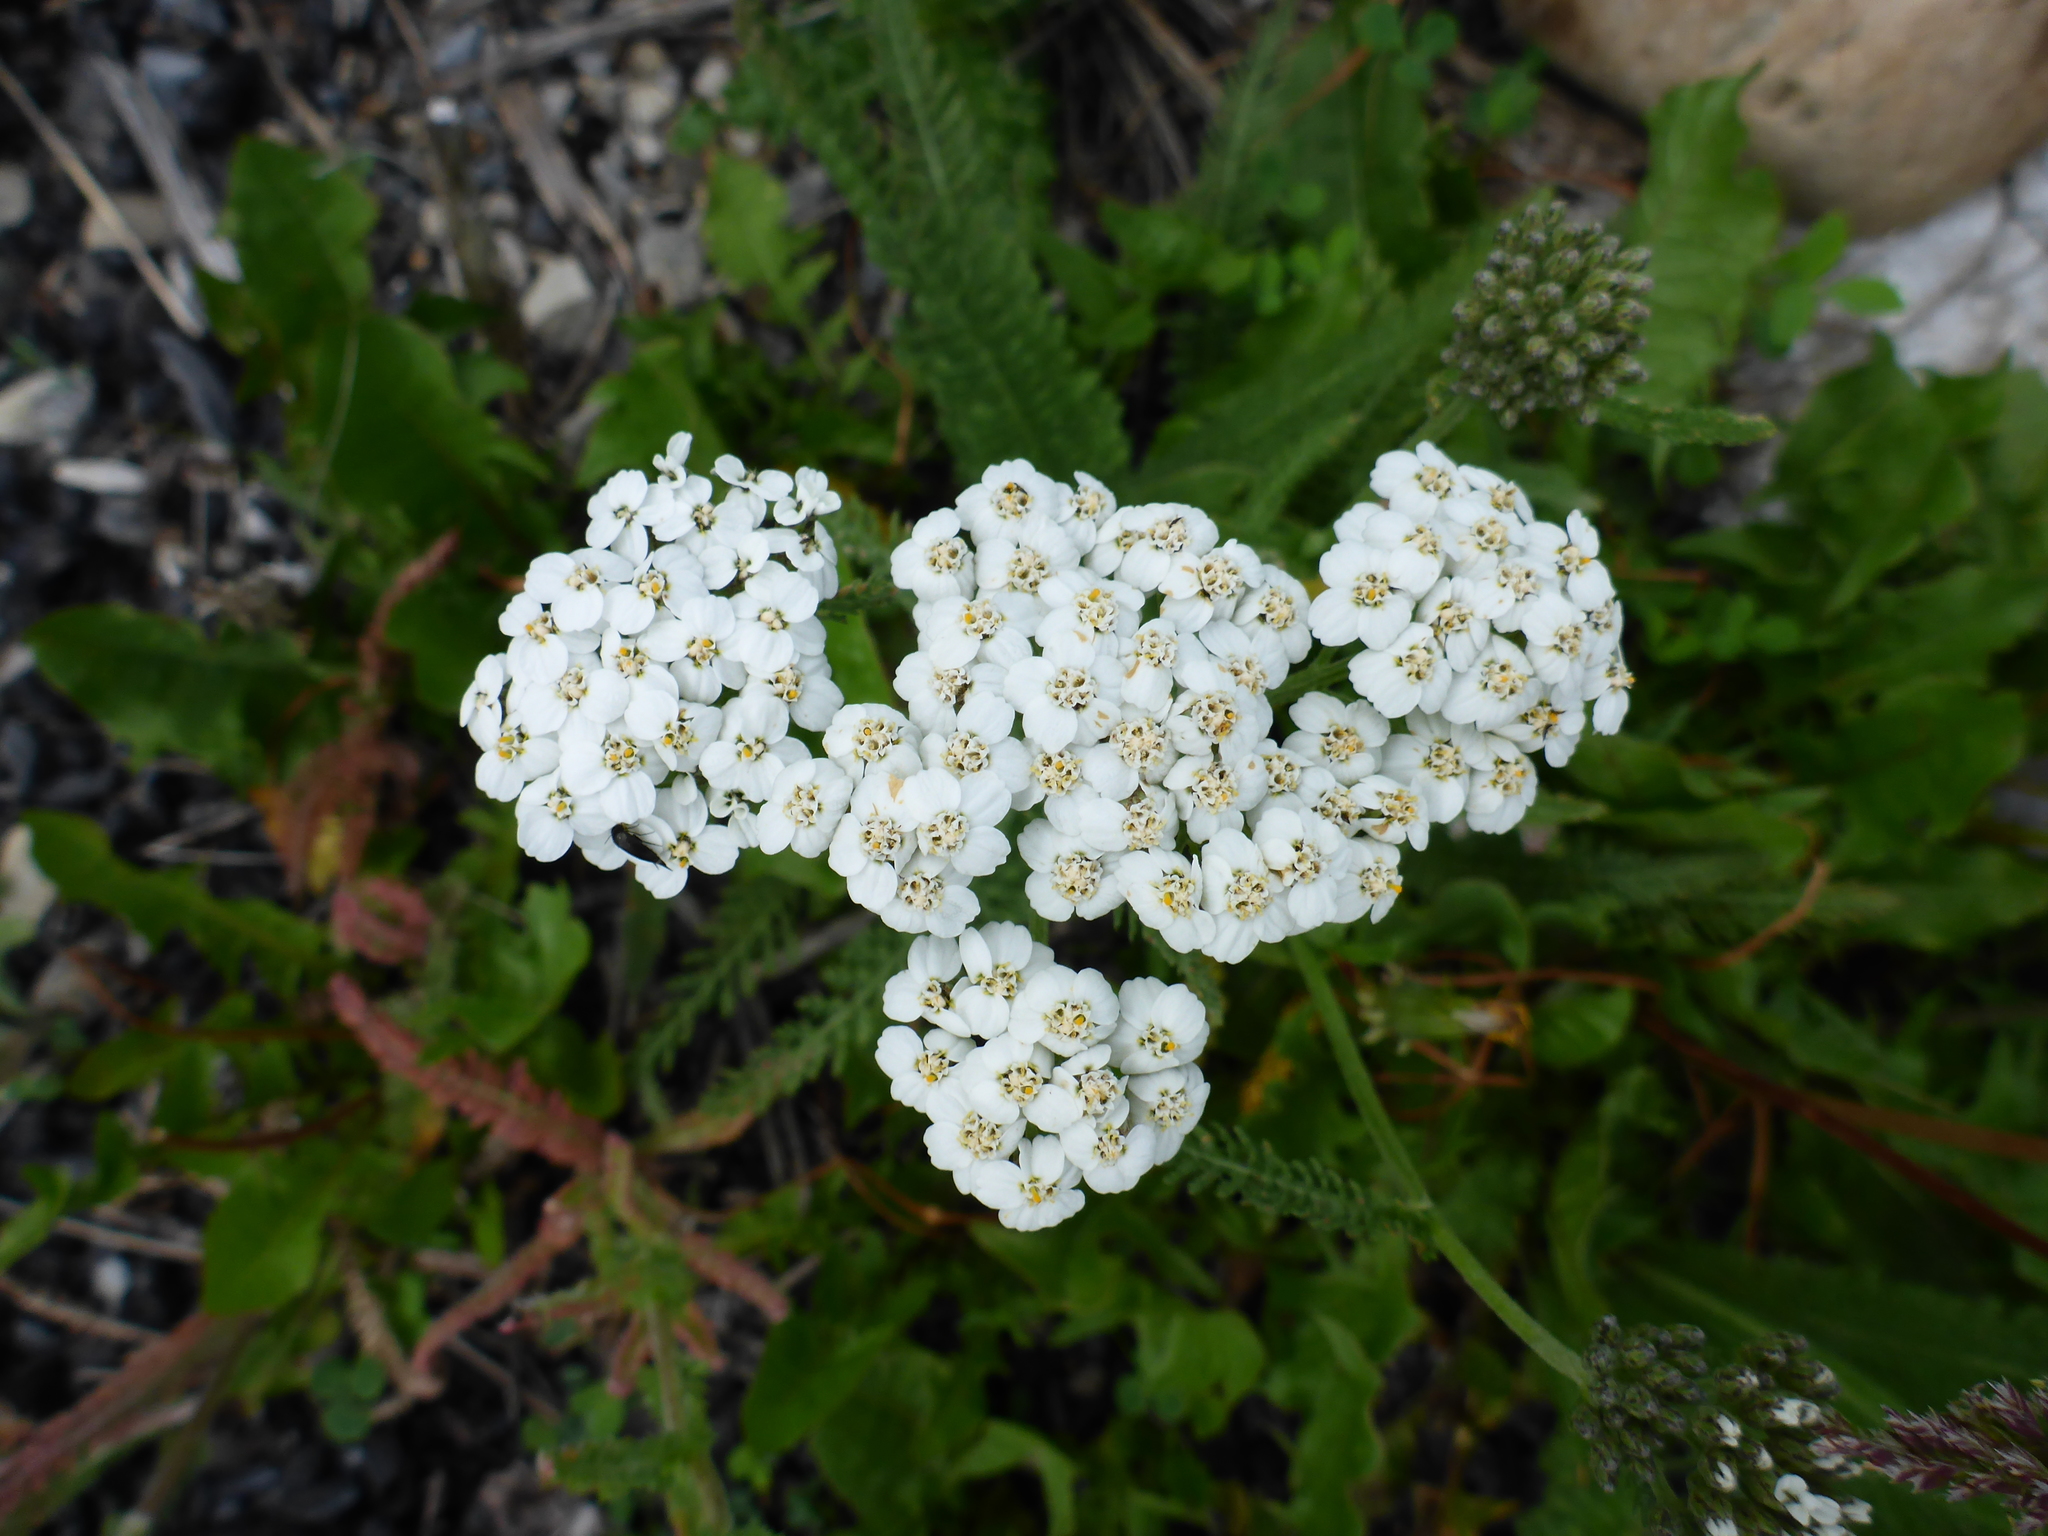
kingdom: Plantae
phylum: Tracheophyta
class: Magnoliopsida
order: Asterales
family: Asteraceae
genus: Achillea
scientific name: Achillea millefolium
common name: Yarrow
